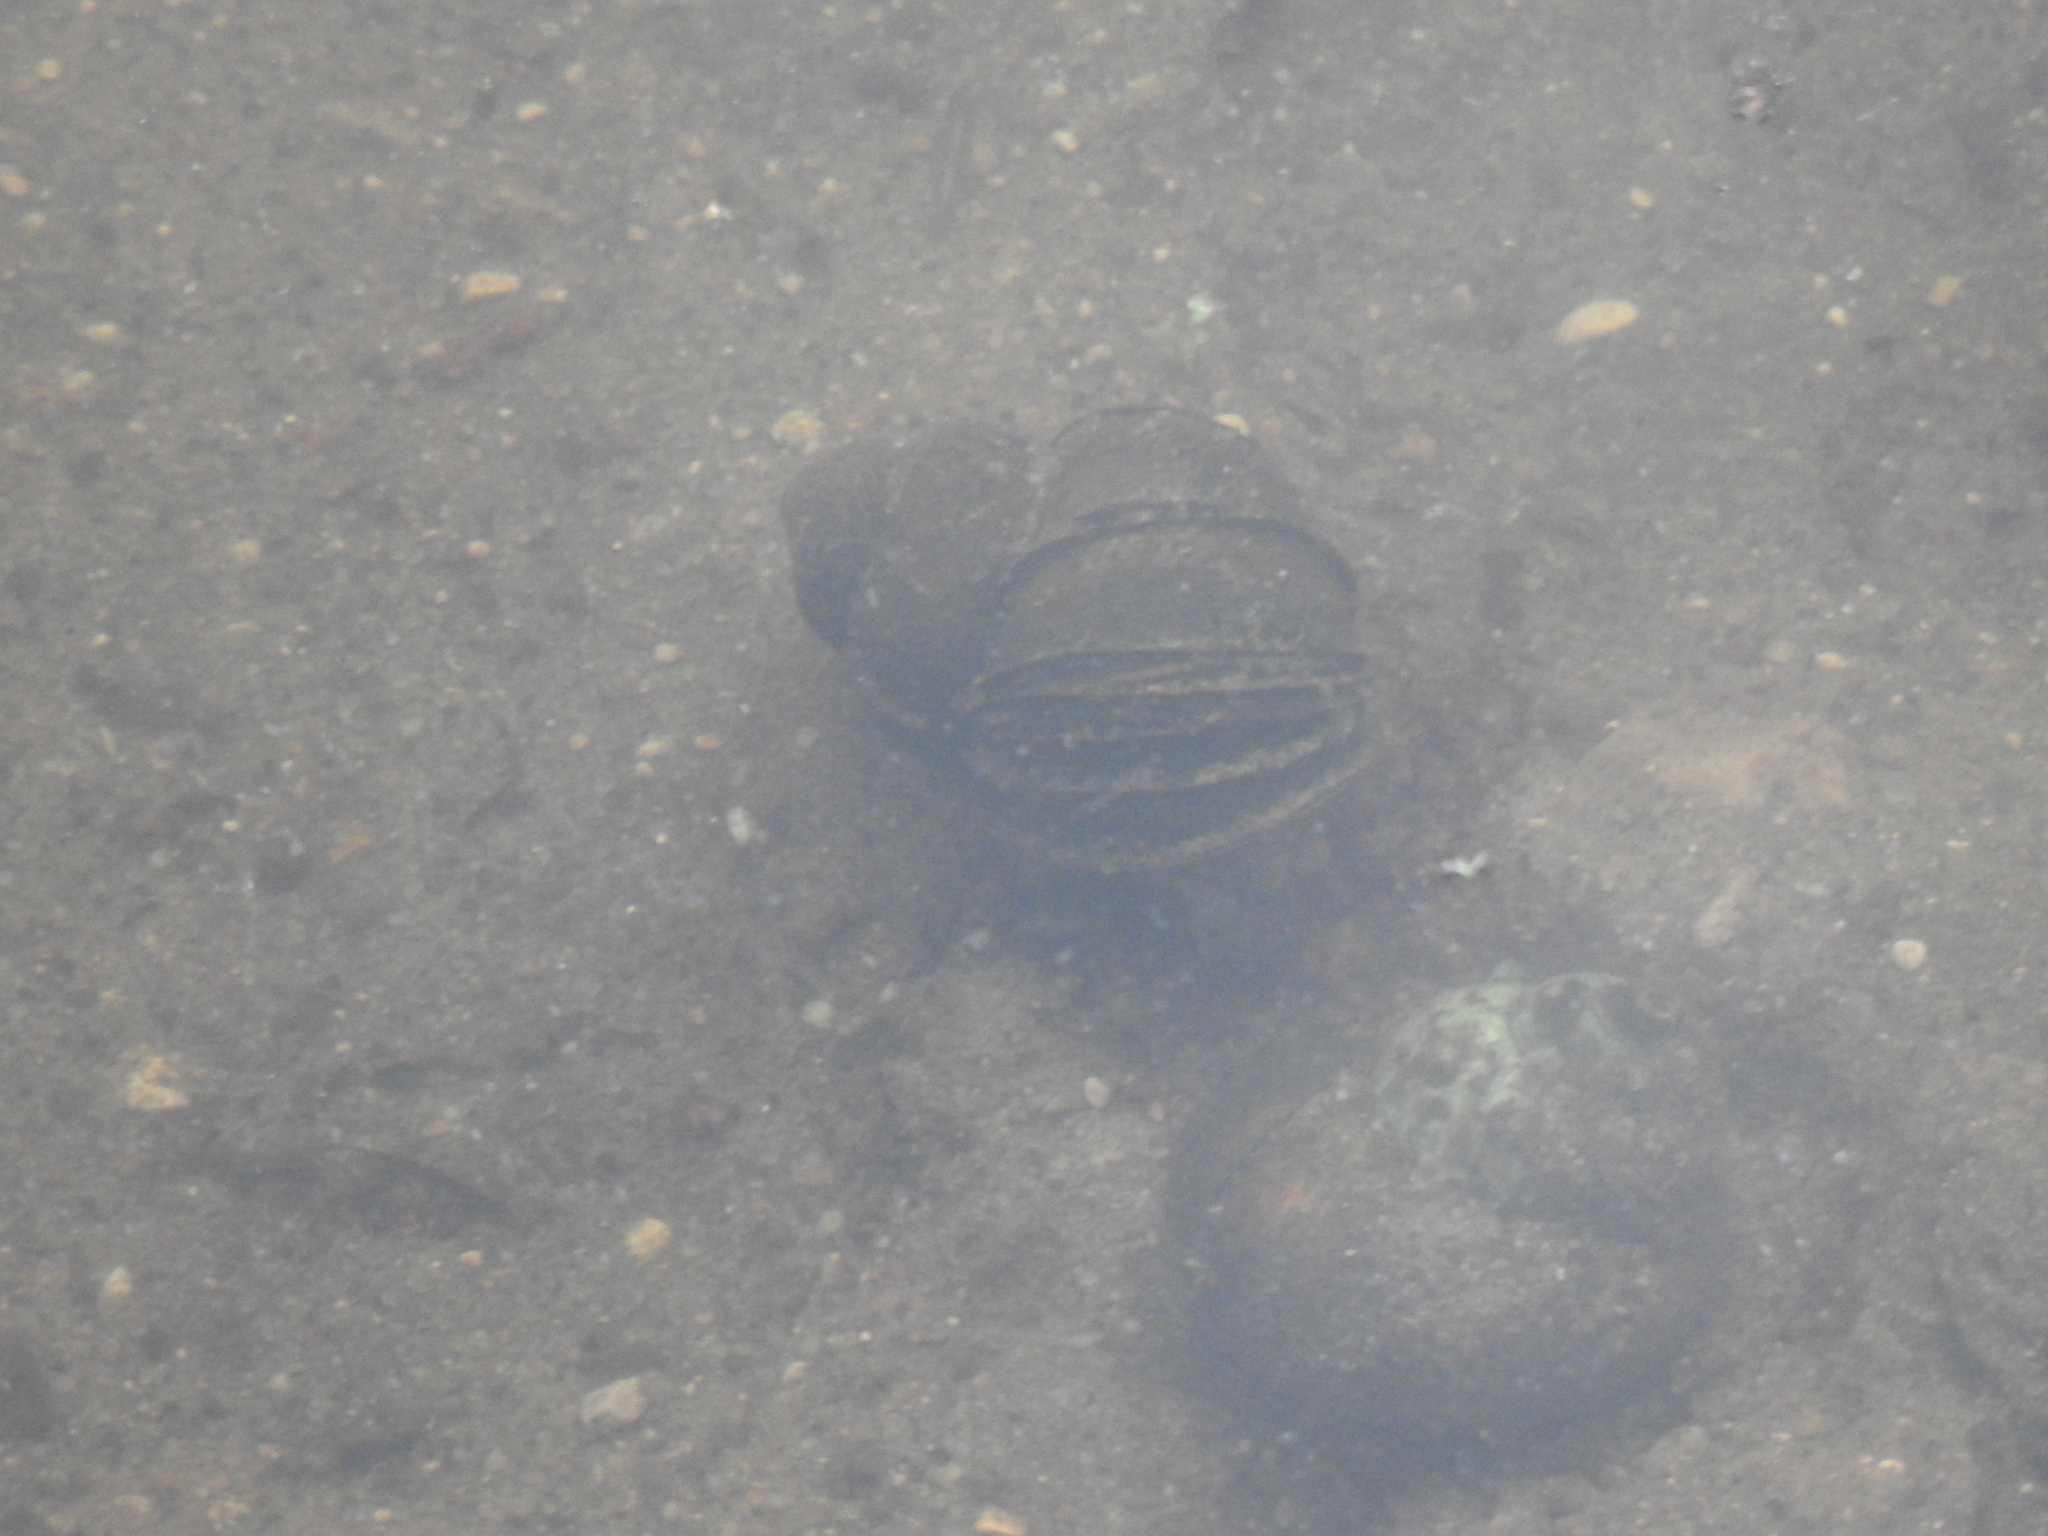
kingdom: Animalia
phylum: Mollusca
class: Gastropoda
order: Architaenioglossa
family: Viviparidae
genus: Cipangopaludina
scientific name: Cipangopaludina chinensis
